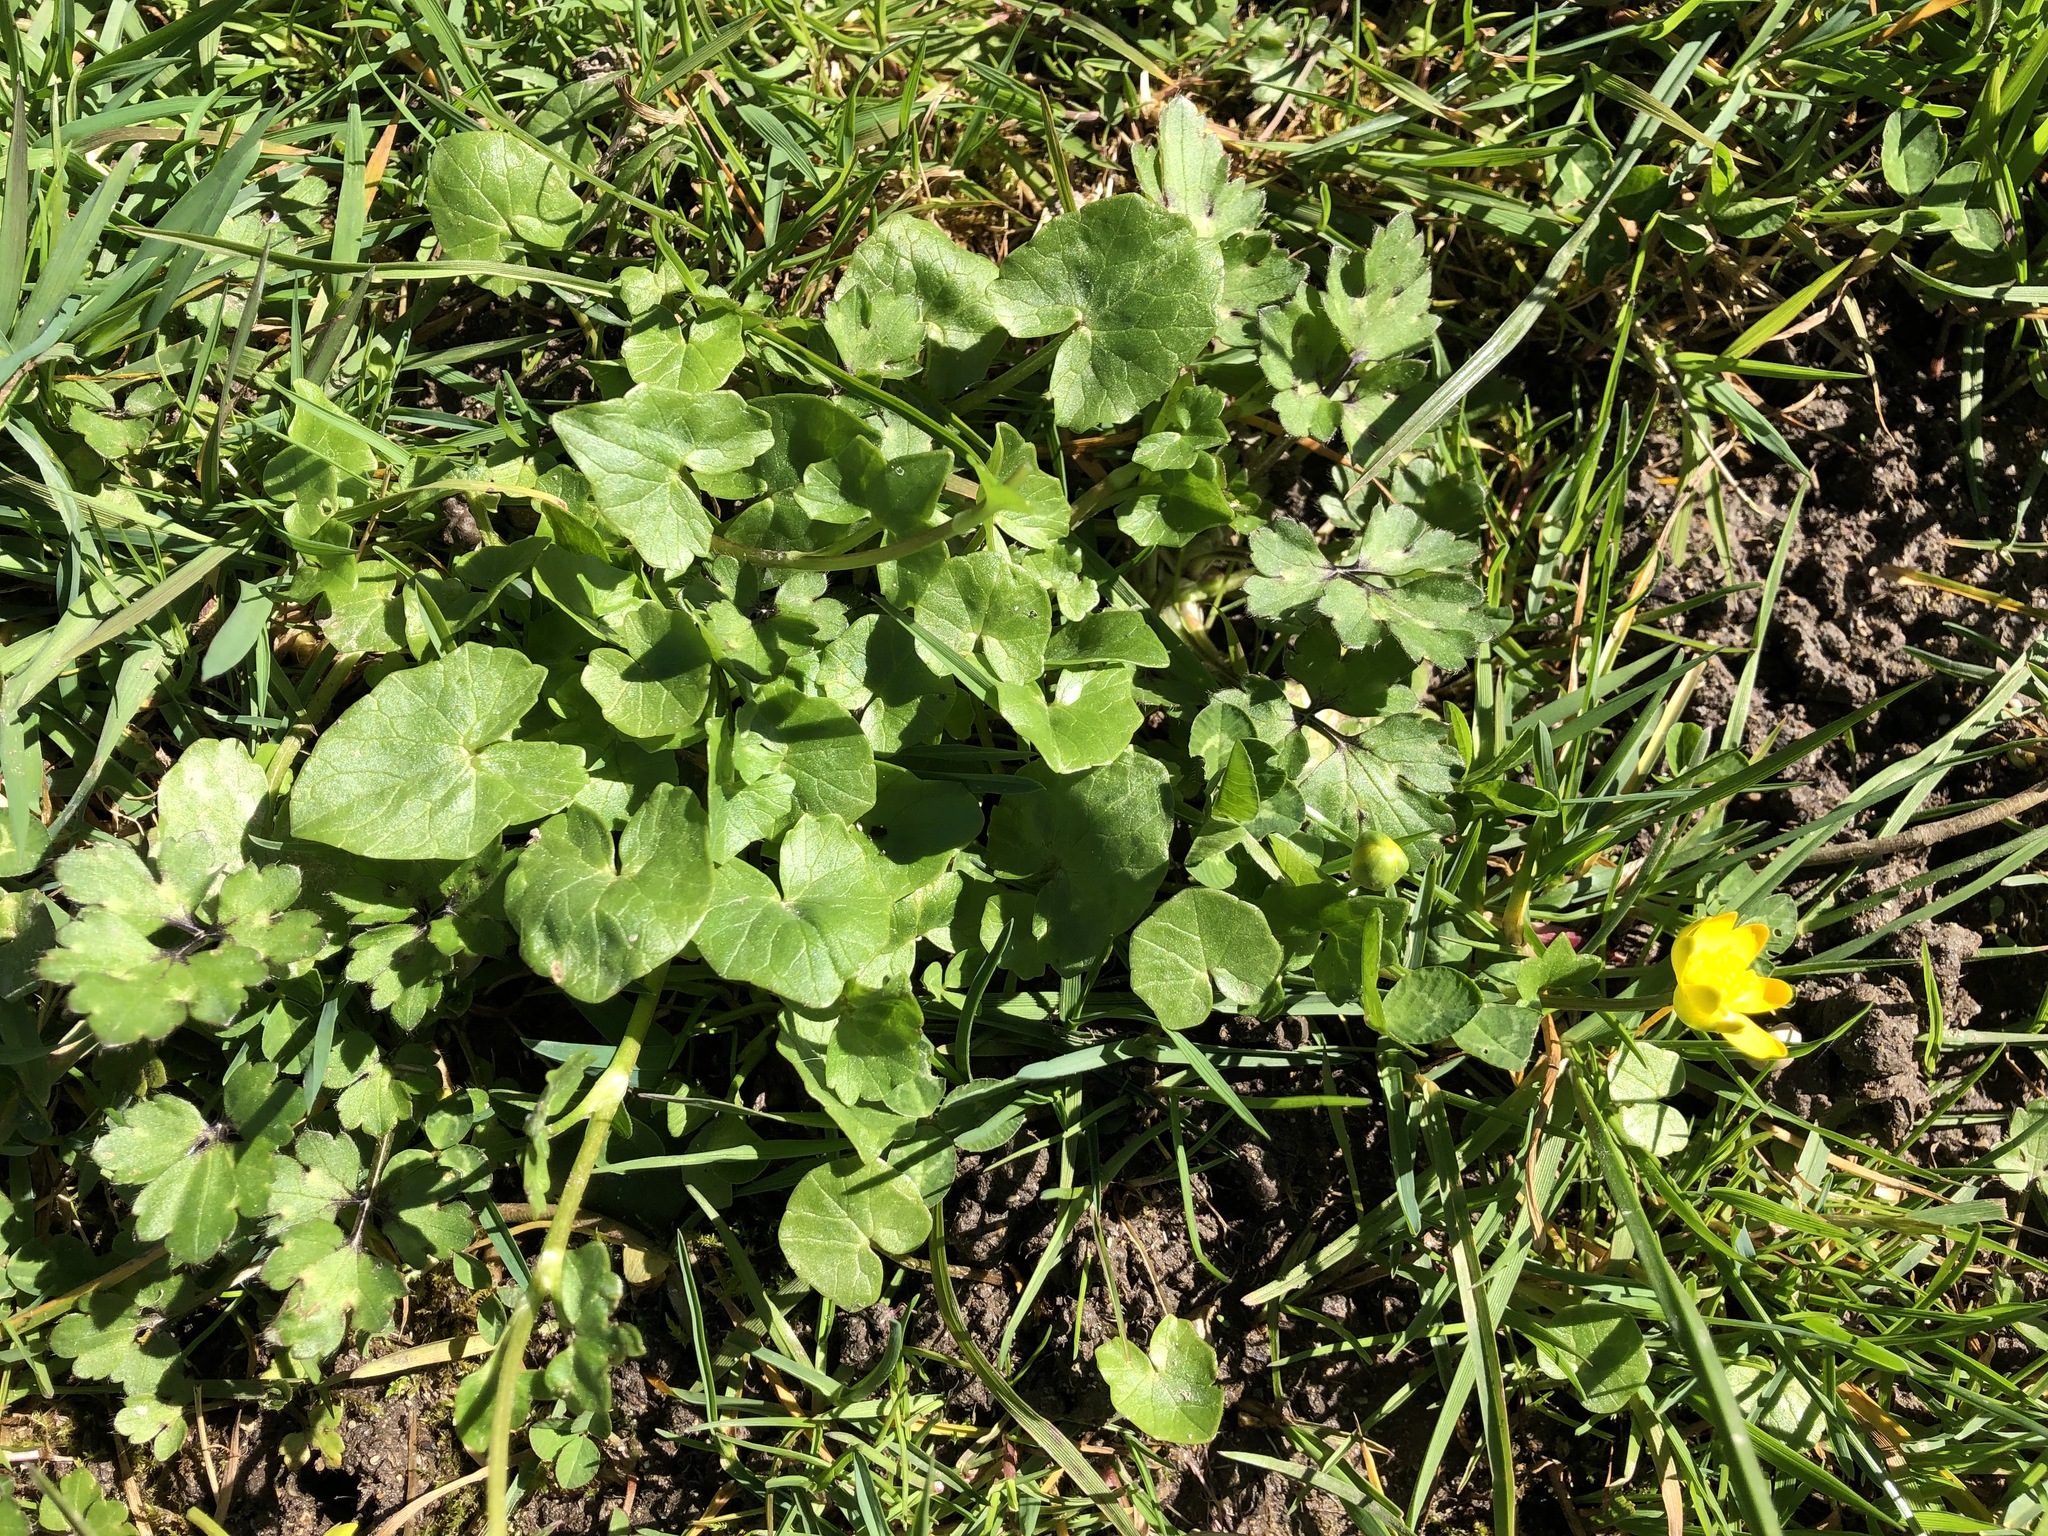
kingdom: Plantae
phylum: Tracheophyta
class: Magnoliopsida
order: Ranunculales
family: Ranunculaceae
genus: Ficaria
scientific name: Ficaria verna
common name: Lesser celandine
